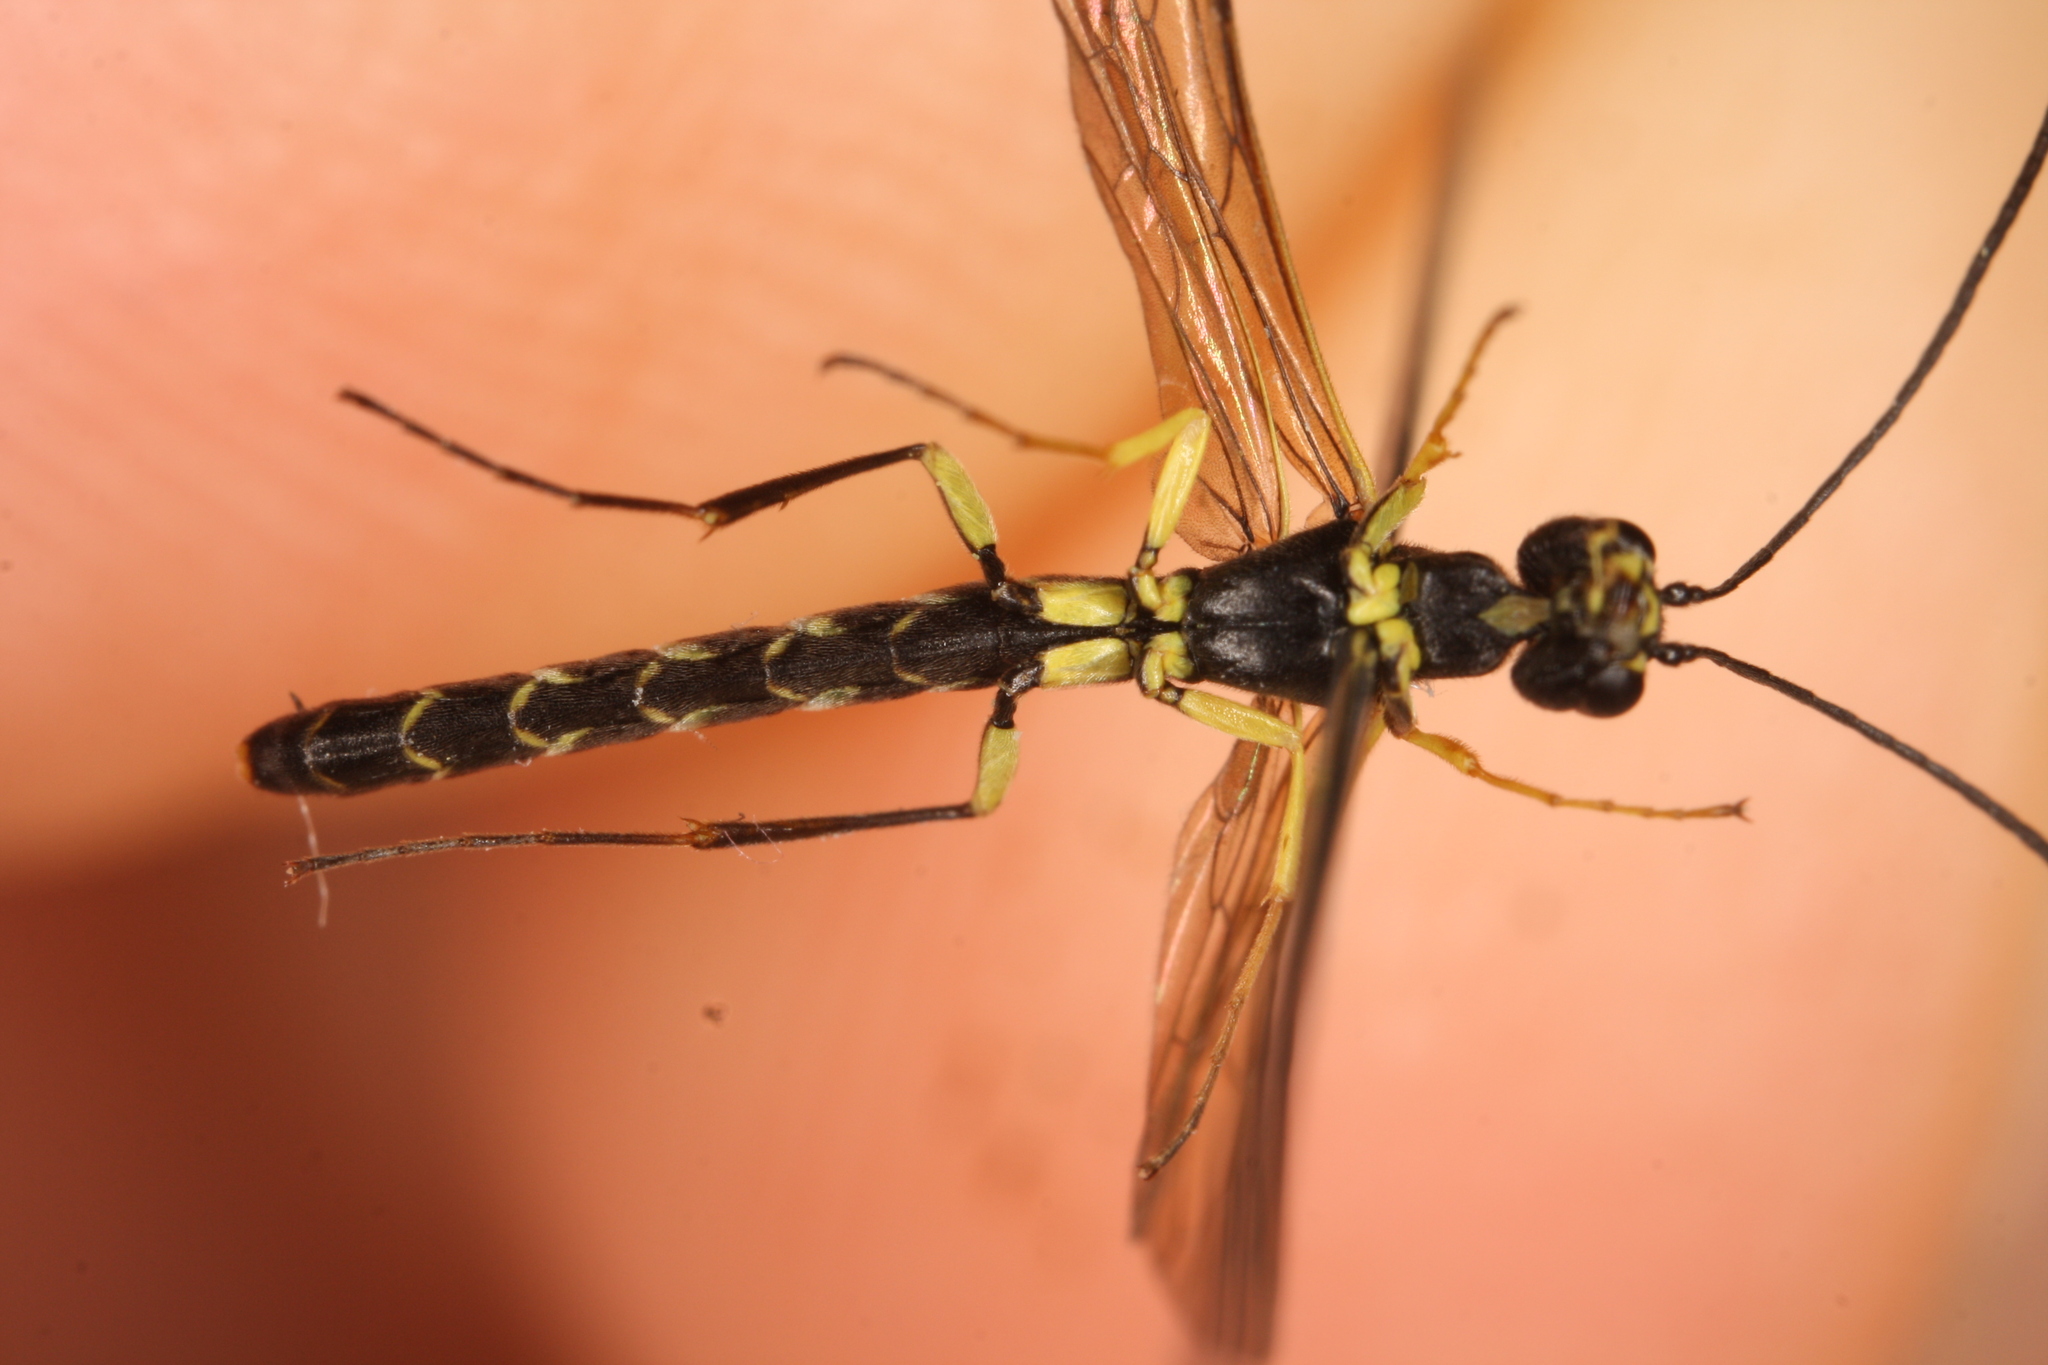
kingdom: Animalia
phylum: Arthropoda
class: Insecta
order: Hymenoptera
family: Cephidae
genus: Calameuta
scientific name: Calameuta filiformis
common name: Reed stem borer
